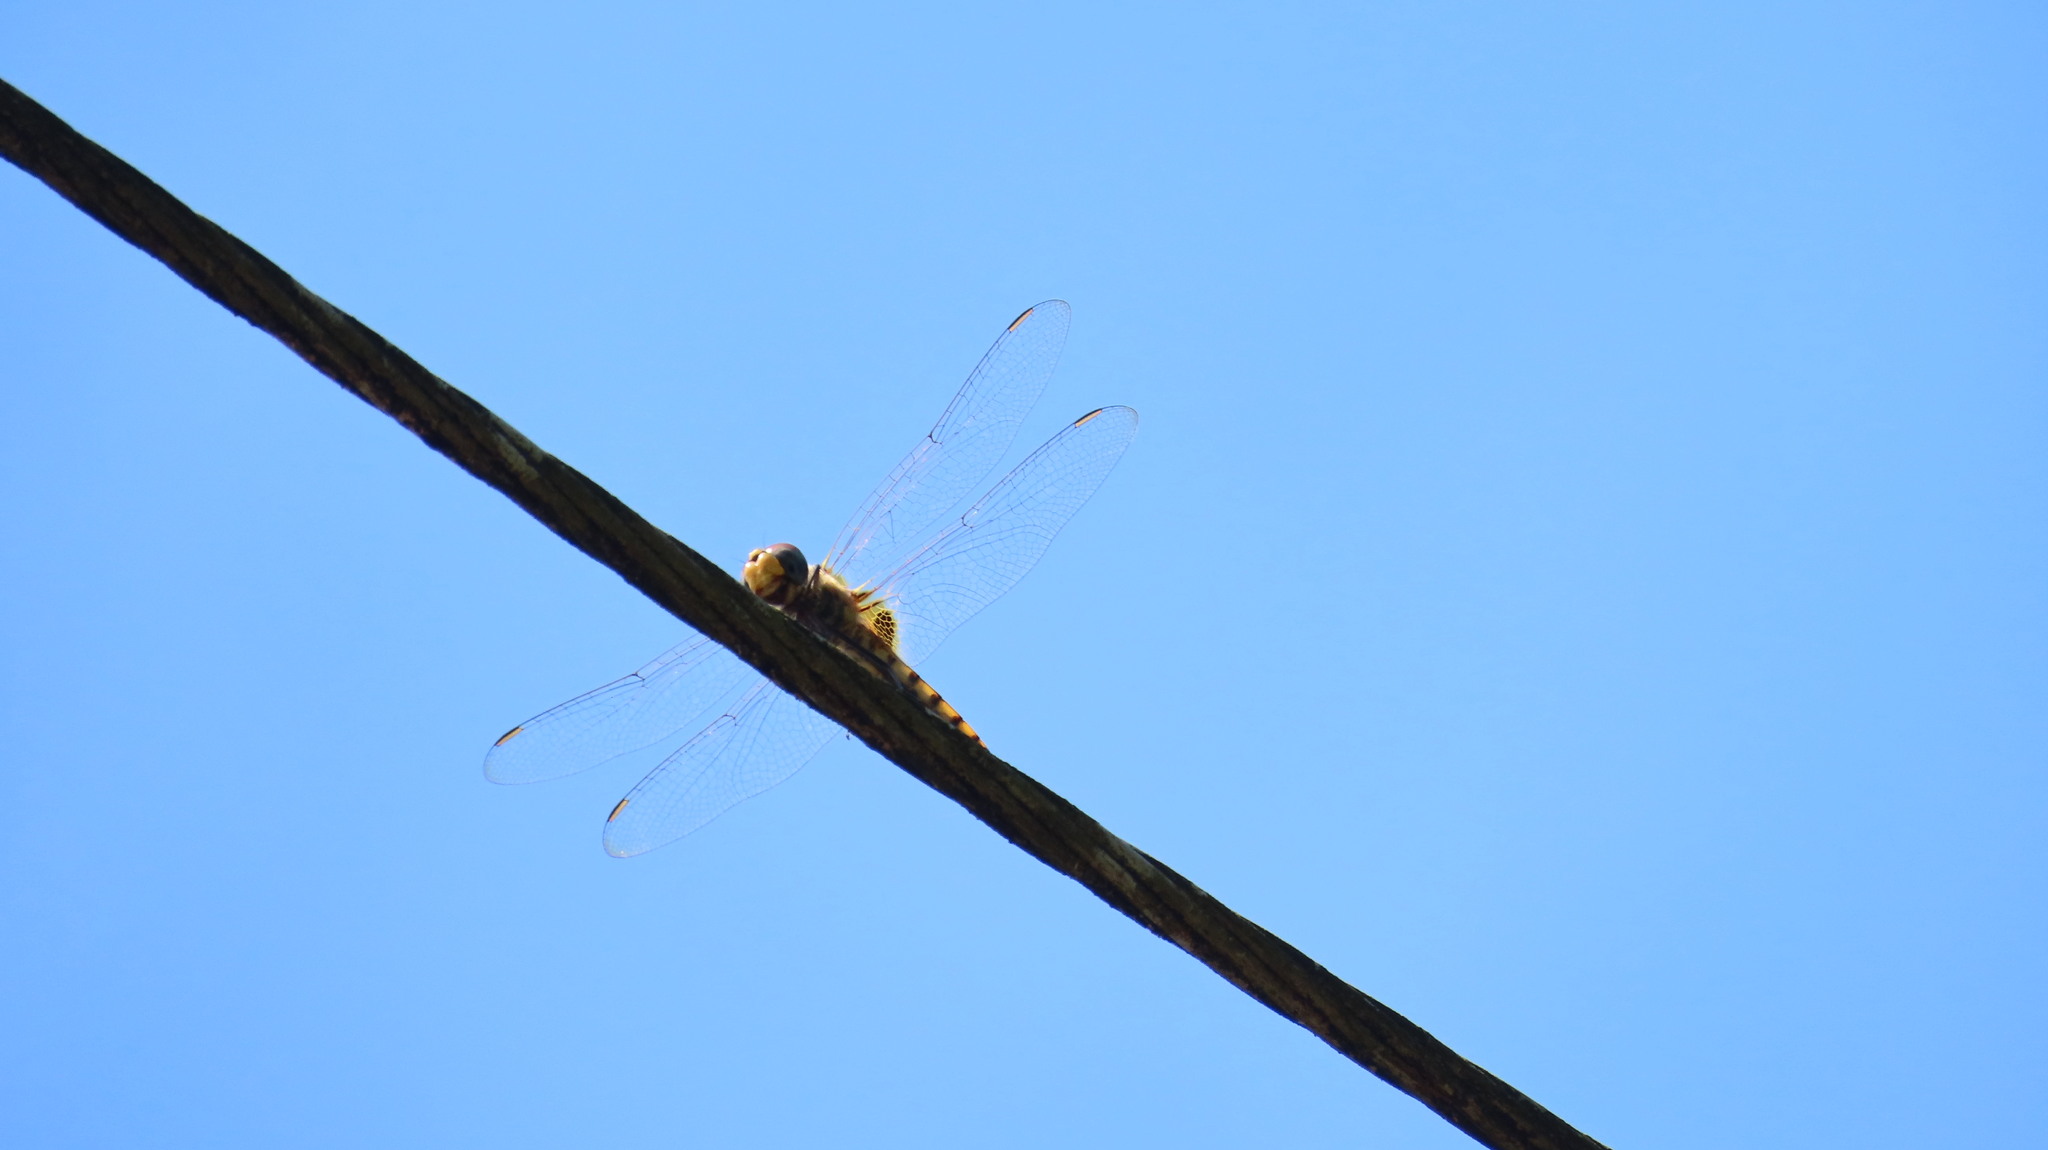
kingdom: Animalia
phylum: Arthropoda
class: Insecta
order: Odonata
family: Libellulidae
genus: Urothemis
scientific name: Urothemis signata
